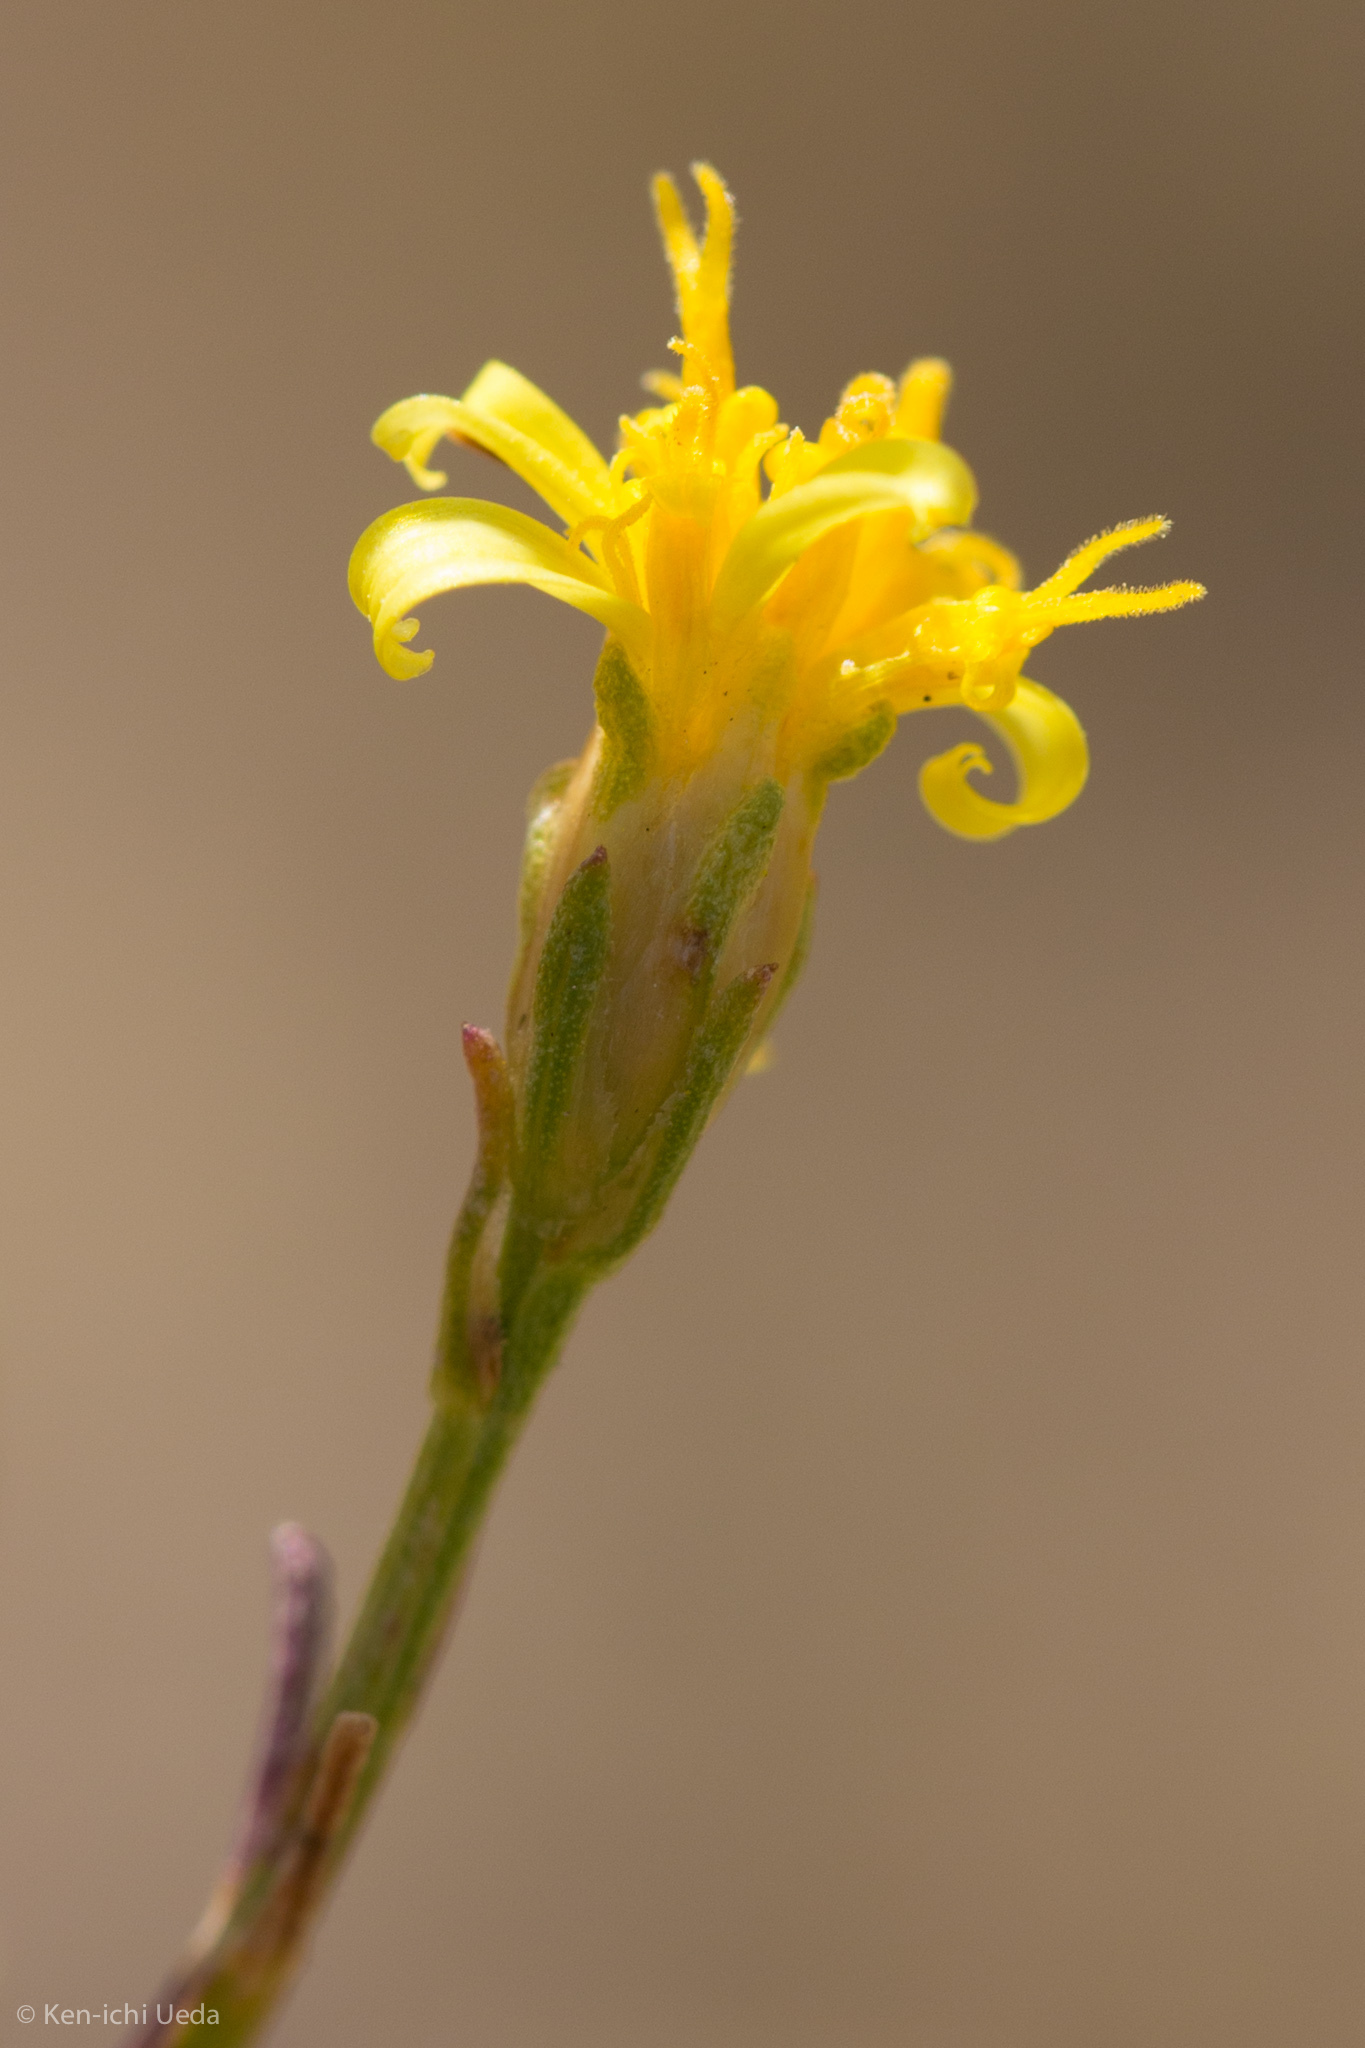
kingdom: Plantae
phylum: Tracheophyta
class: Magnoliopsida
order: Asterales
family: Asteraceae
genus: Gutierrezia
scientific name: Gutierrezia californica
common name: California matchweed
